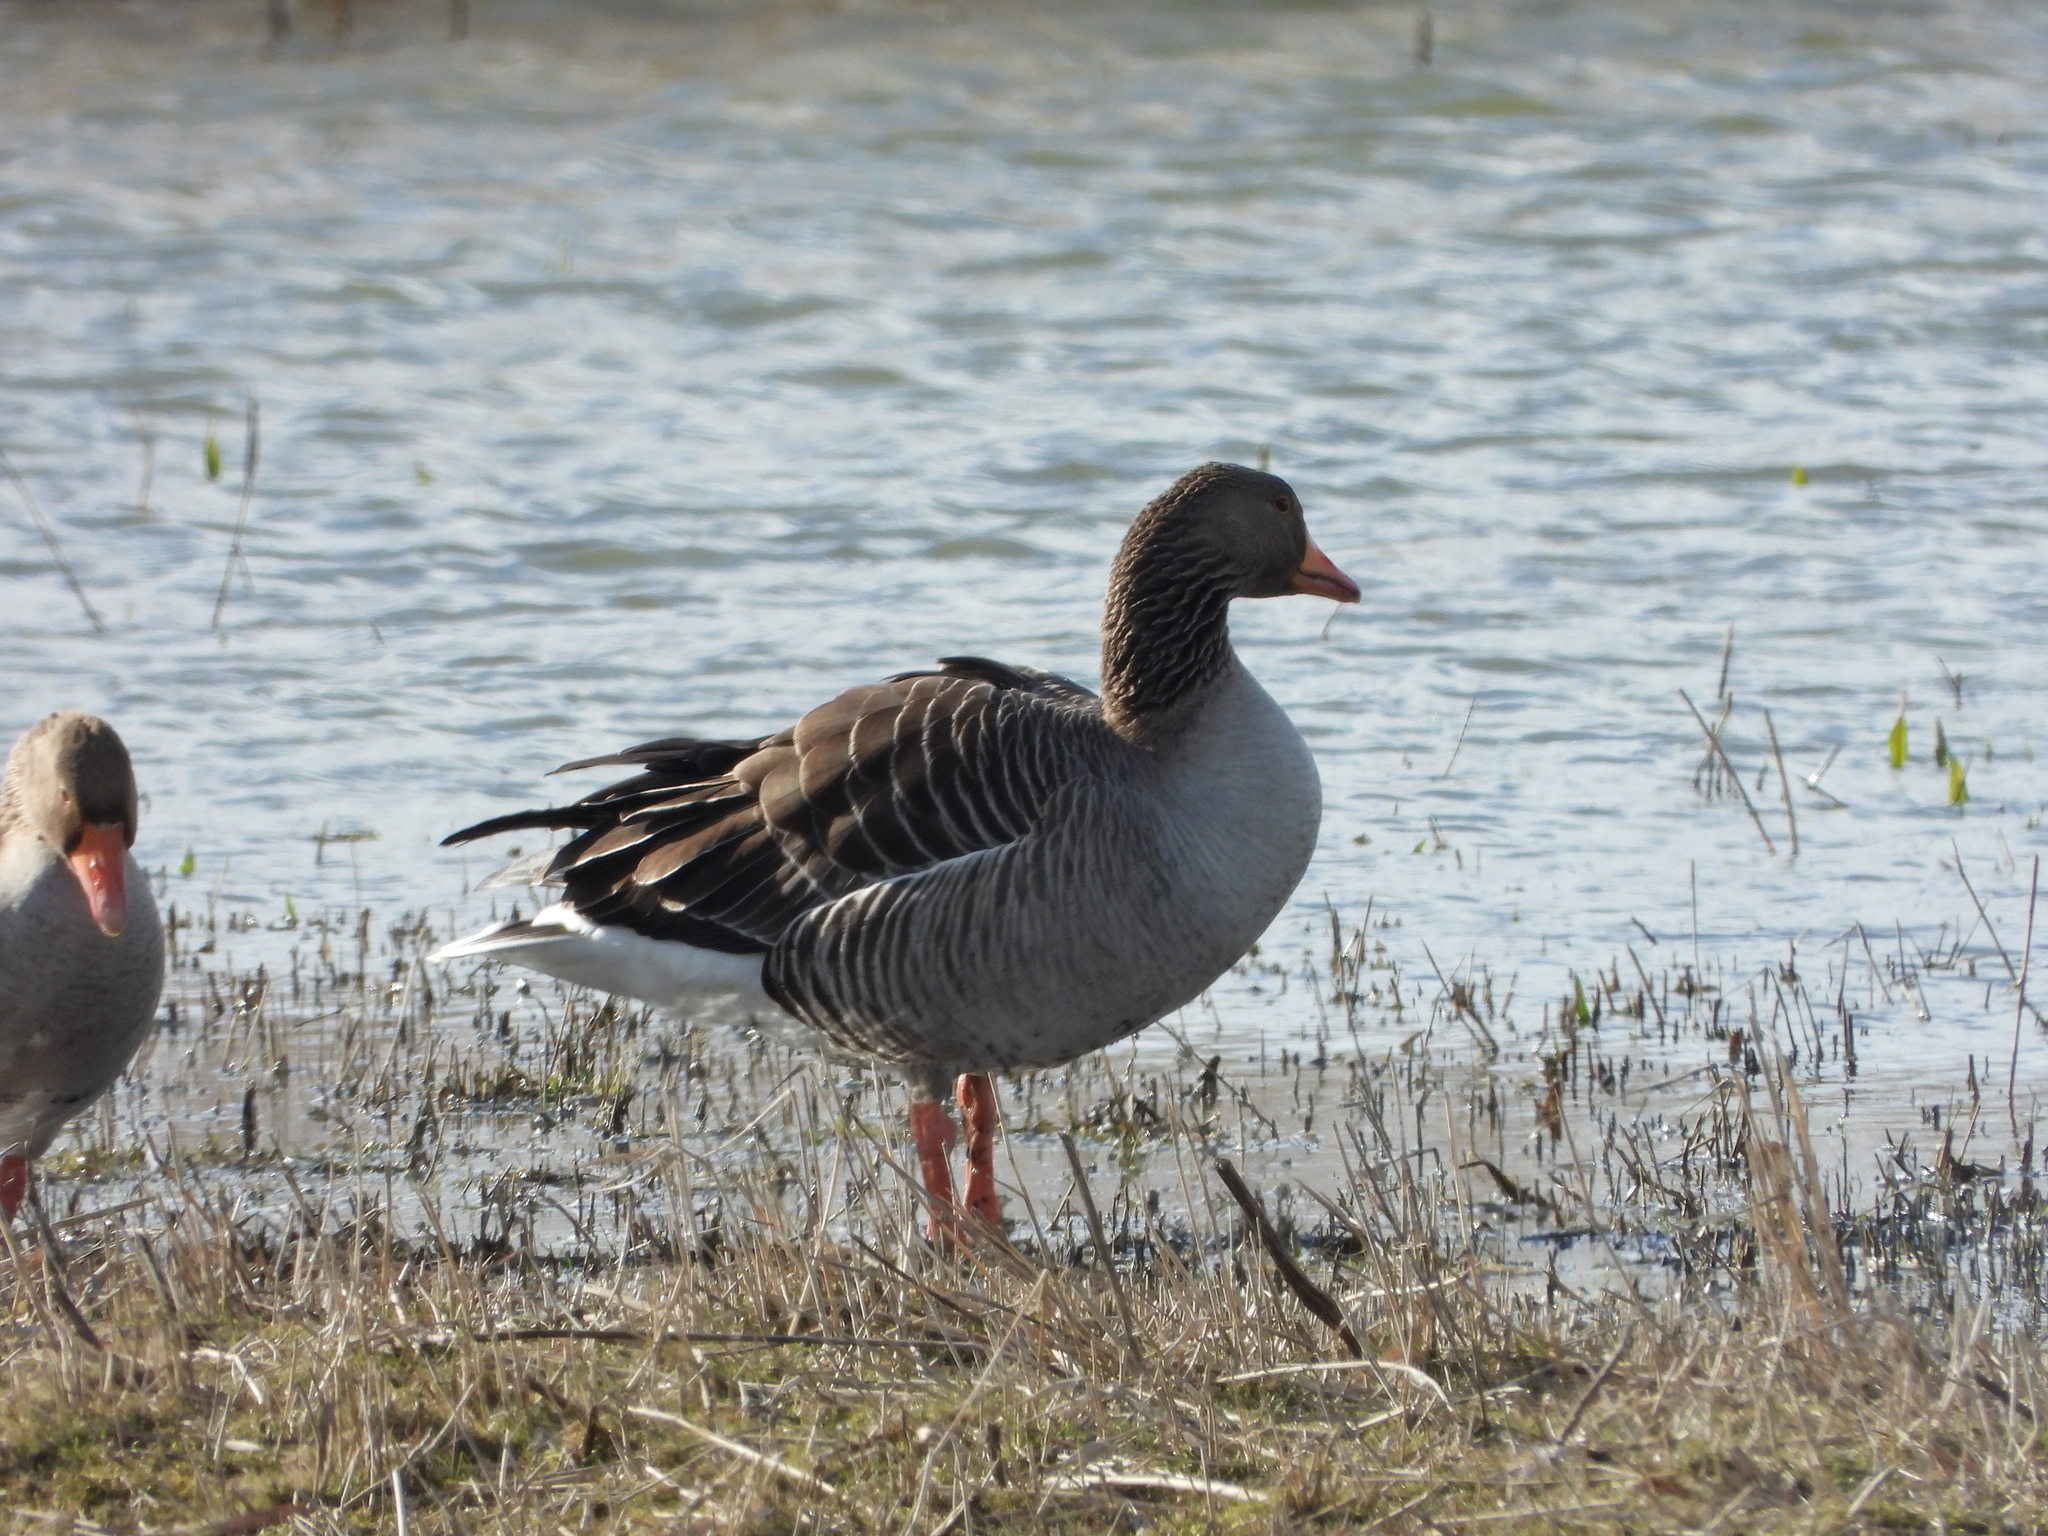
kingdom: Animalia
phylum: Chordata
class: Aves
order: Anseriformes
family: Anatidae
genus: Anser
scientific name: Anser anser
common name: Greylag goose
